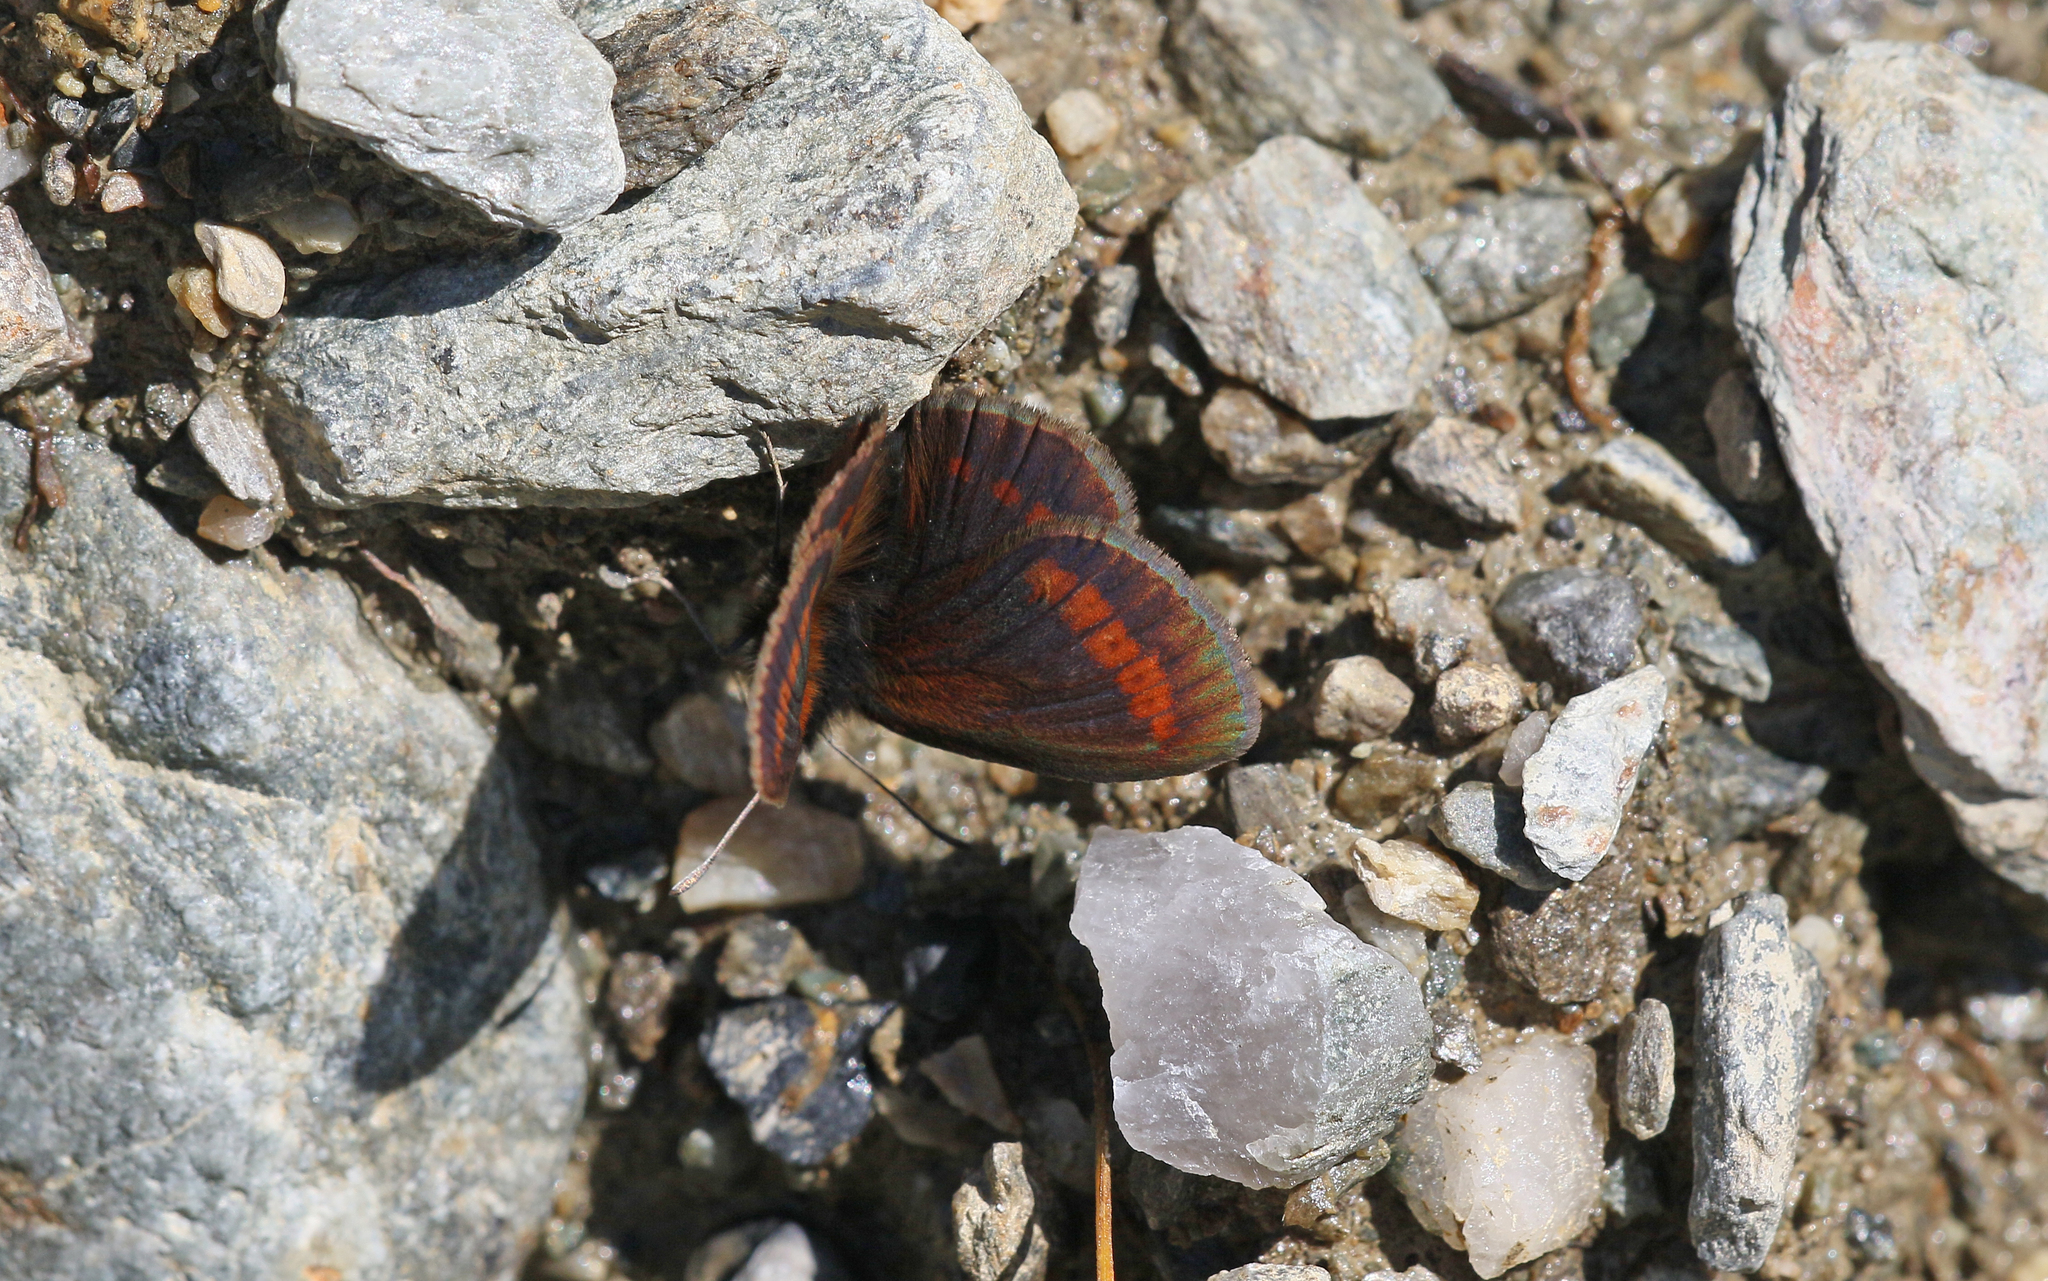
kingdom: Animalia
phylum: Arthropoda
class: Insecta
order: Lepidoptera
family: Nymphalidae
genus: Erebia
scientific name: Erebia
